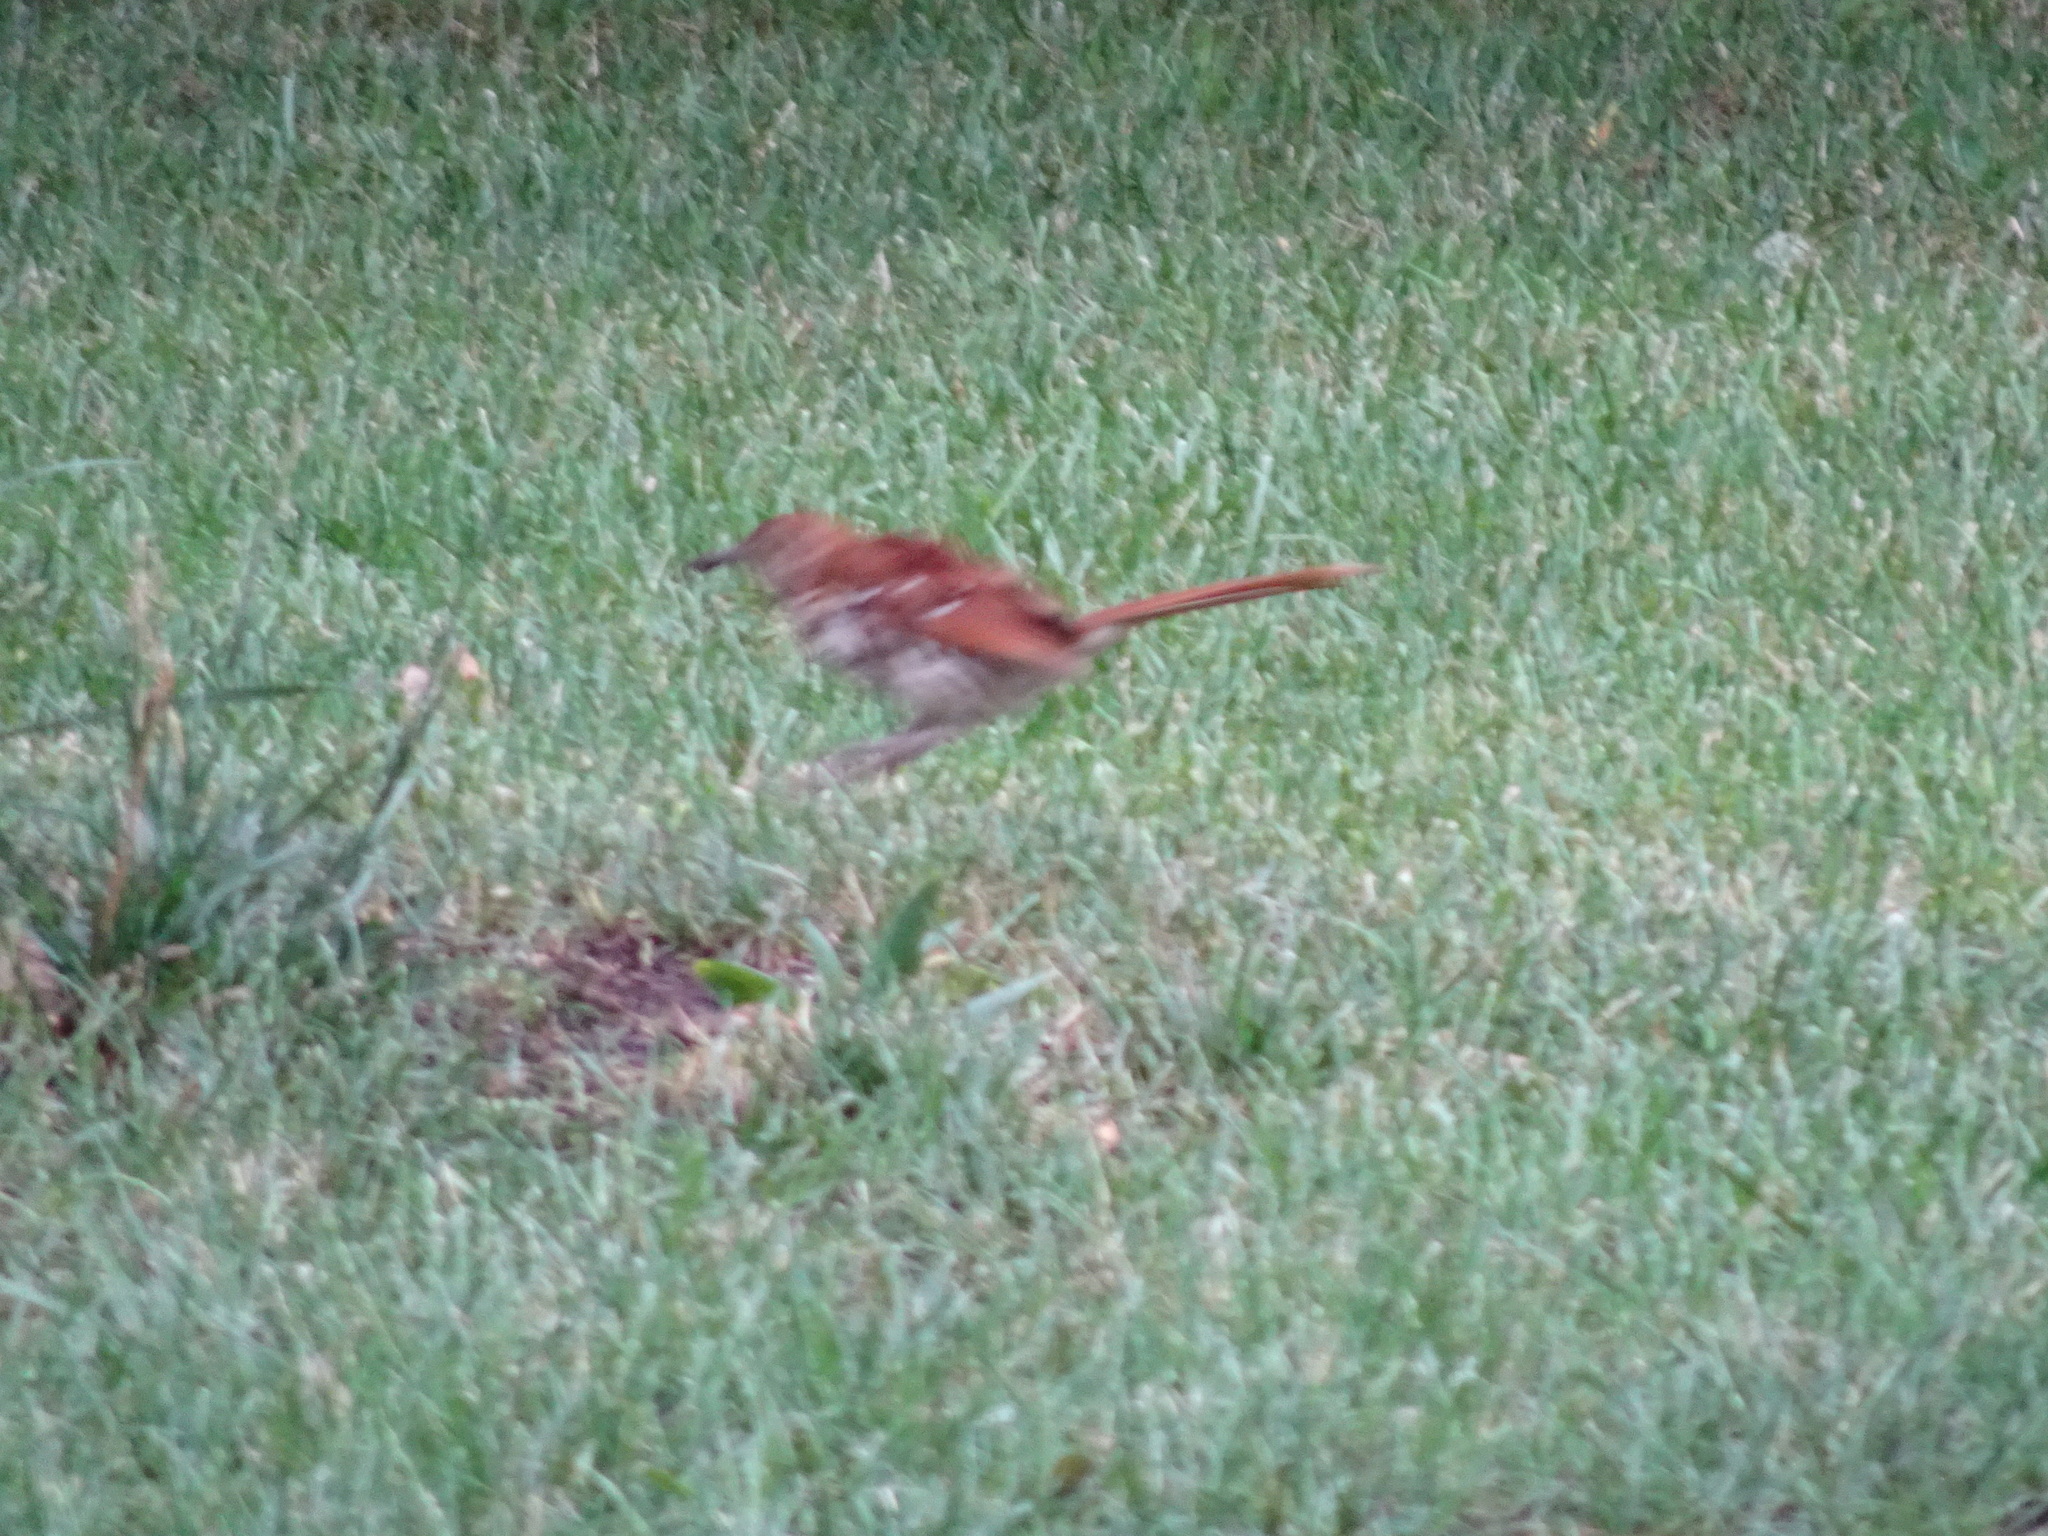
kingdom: Animalia
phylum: Chordata
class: Aves
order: Passeriformes
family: Mimidae
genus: Toxostoma
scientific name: Toxostoma rufum
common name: Brown thrasher
